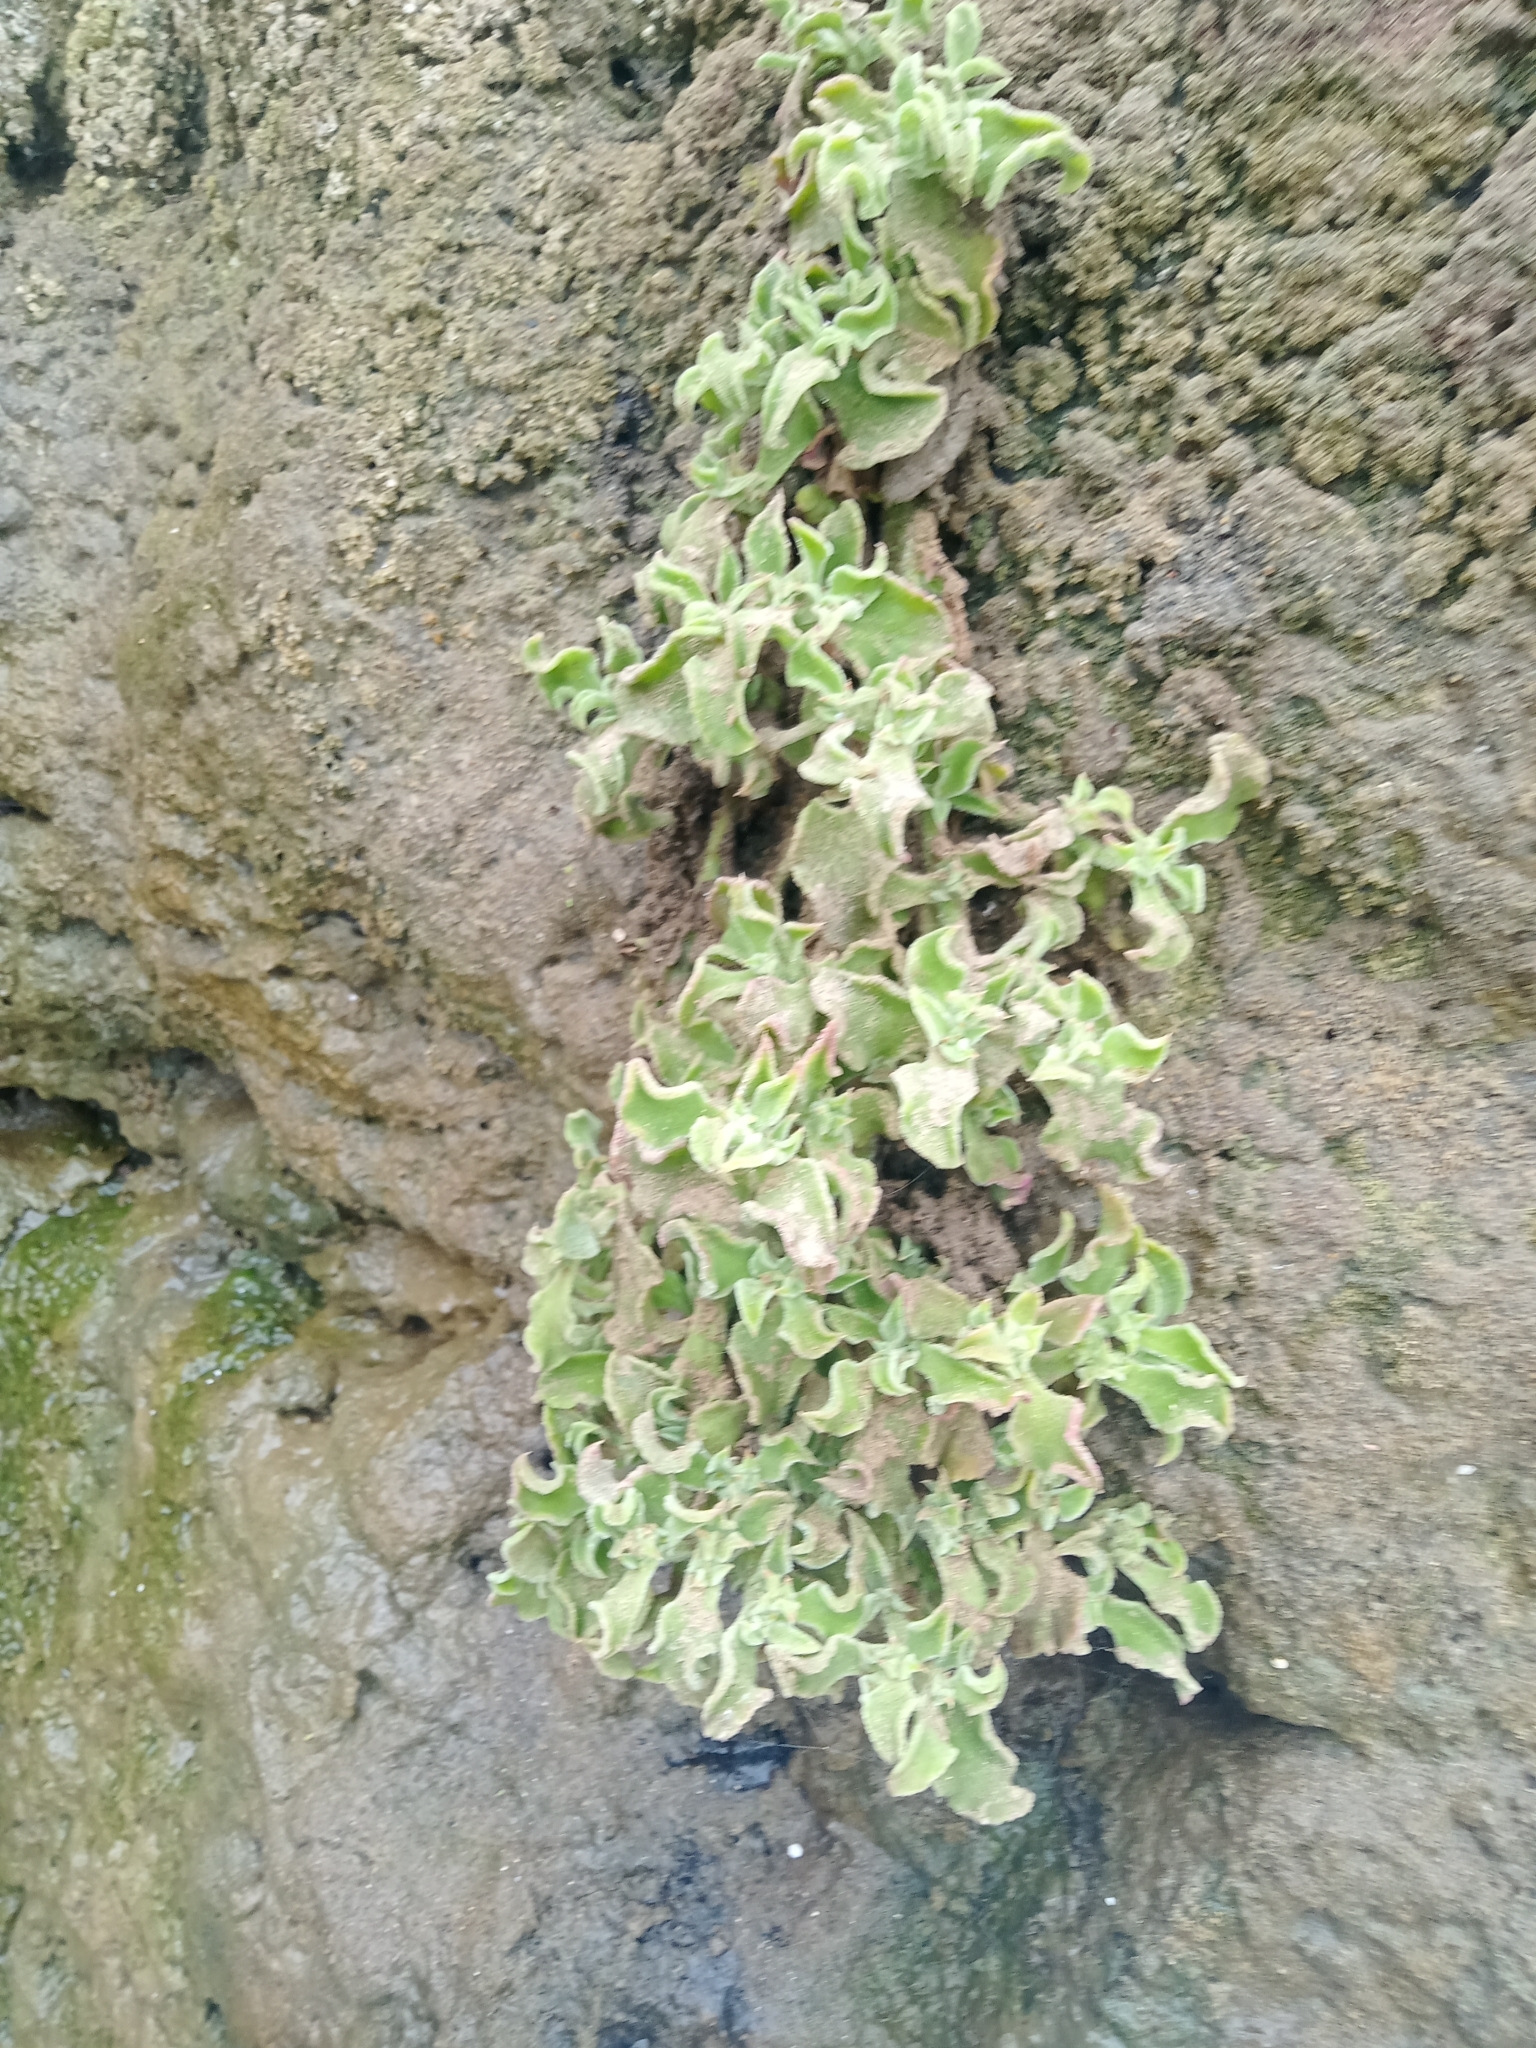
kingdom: Plantae
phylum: Tracheophyta
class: Magnoliopsida
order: Caryophyllales
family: Aizoaceae
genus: Mesembryanthemum
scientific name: Mesembryanthemum crystallinum
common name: Common iceplant
